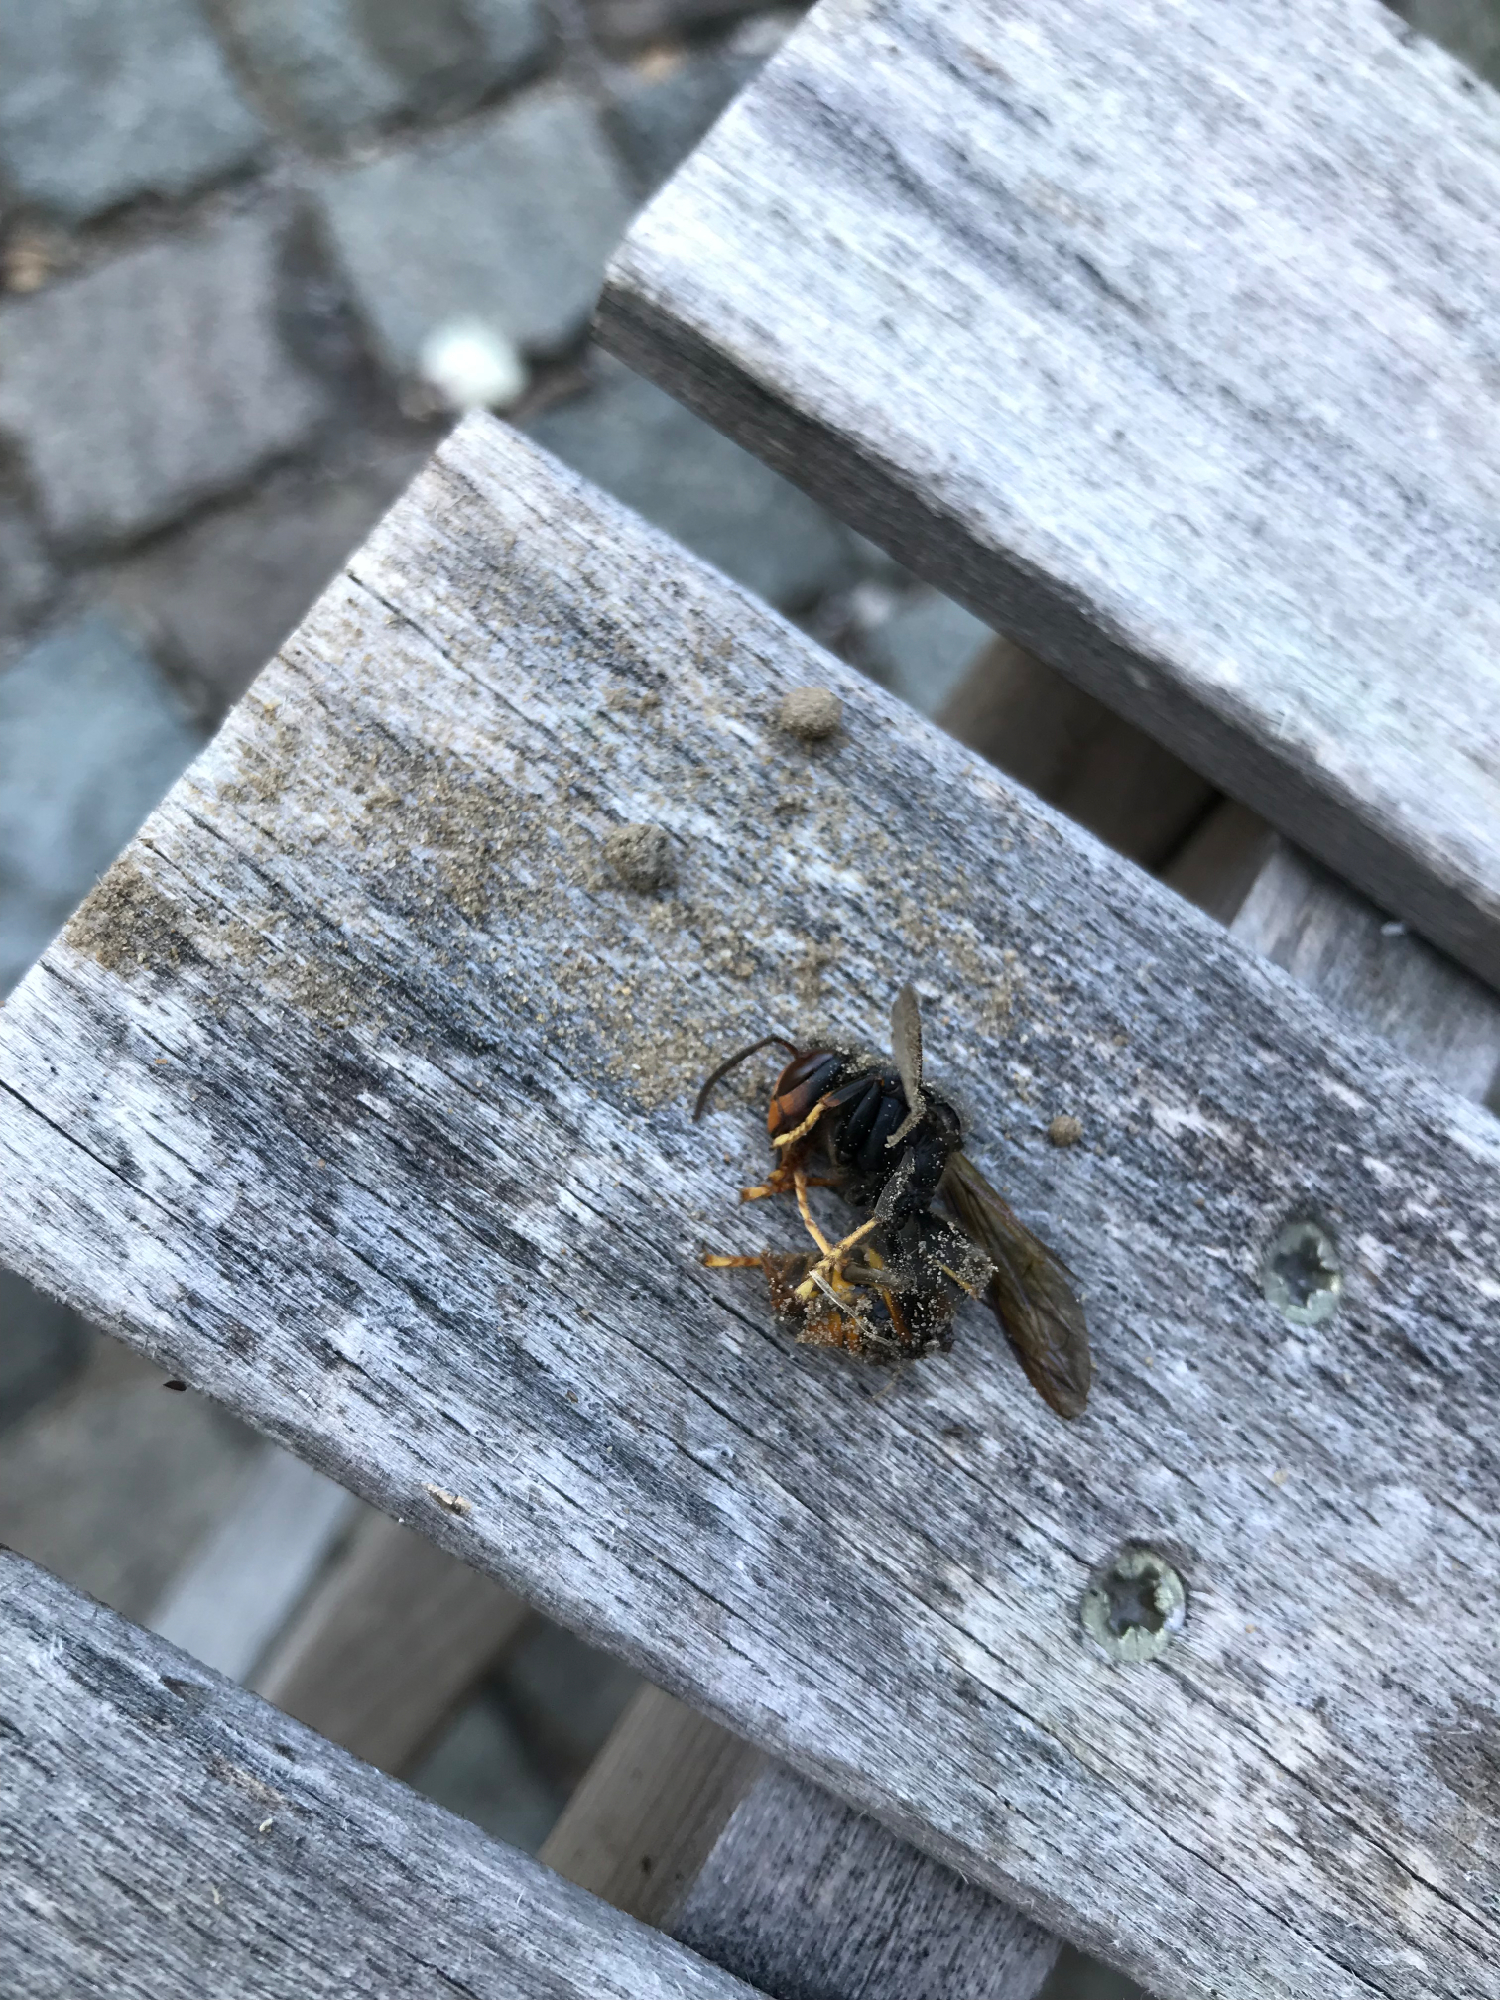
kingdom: Animalia
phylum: Arthropoda
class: Insecta
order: Hymenoptera
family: Vespidae
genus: Vespa
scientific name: Vespa velutina
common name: Asian hornet
